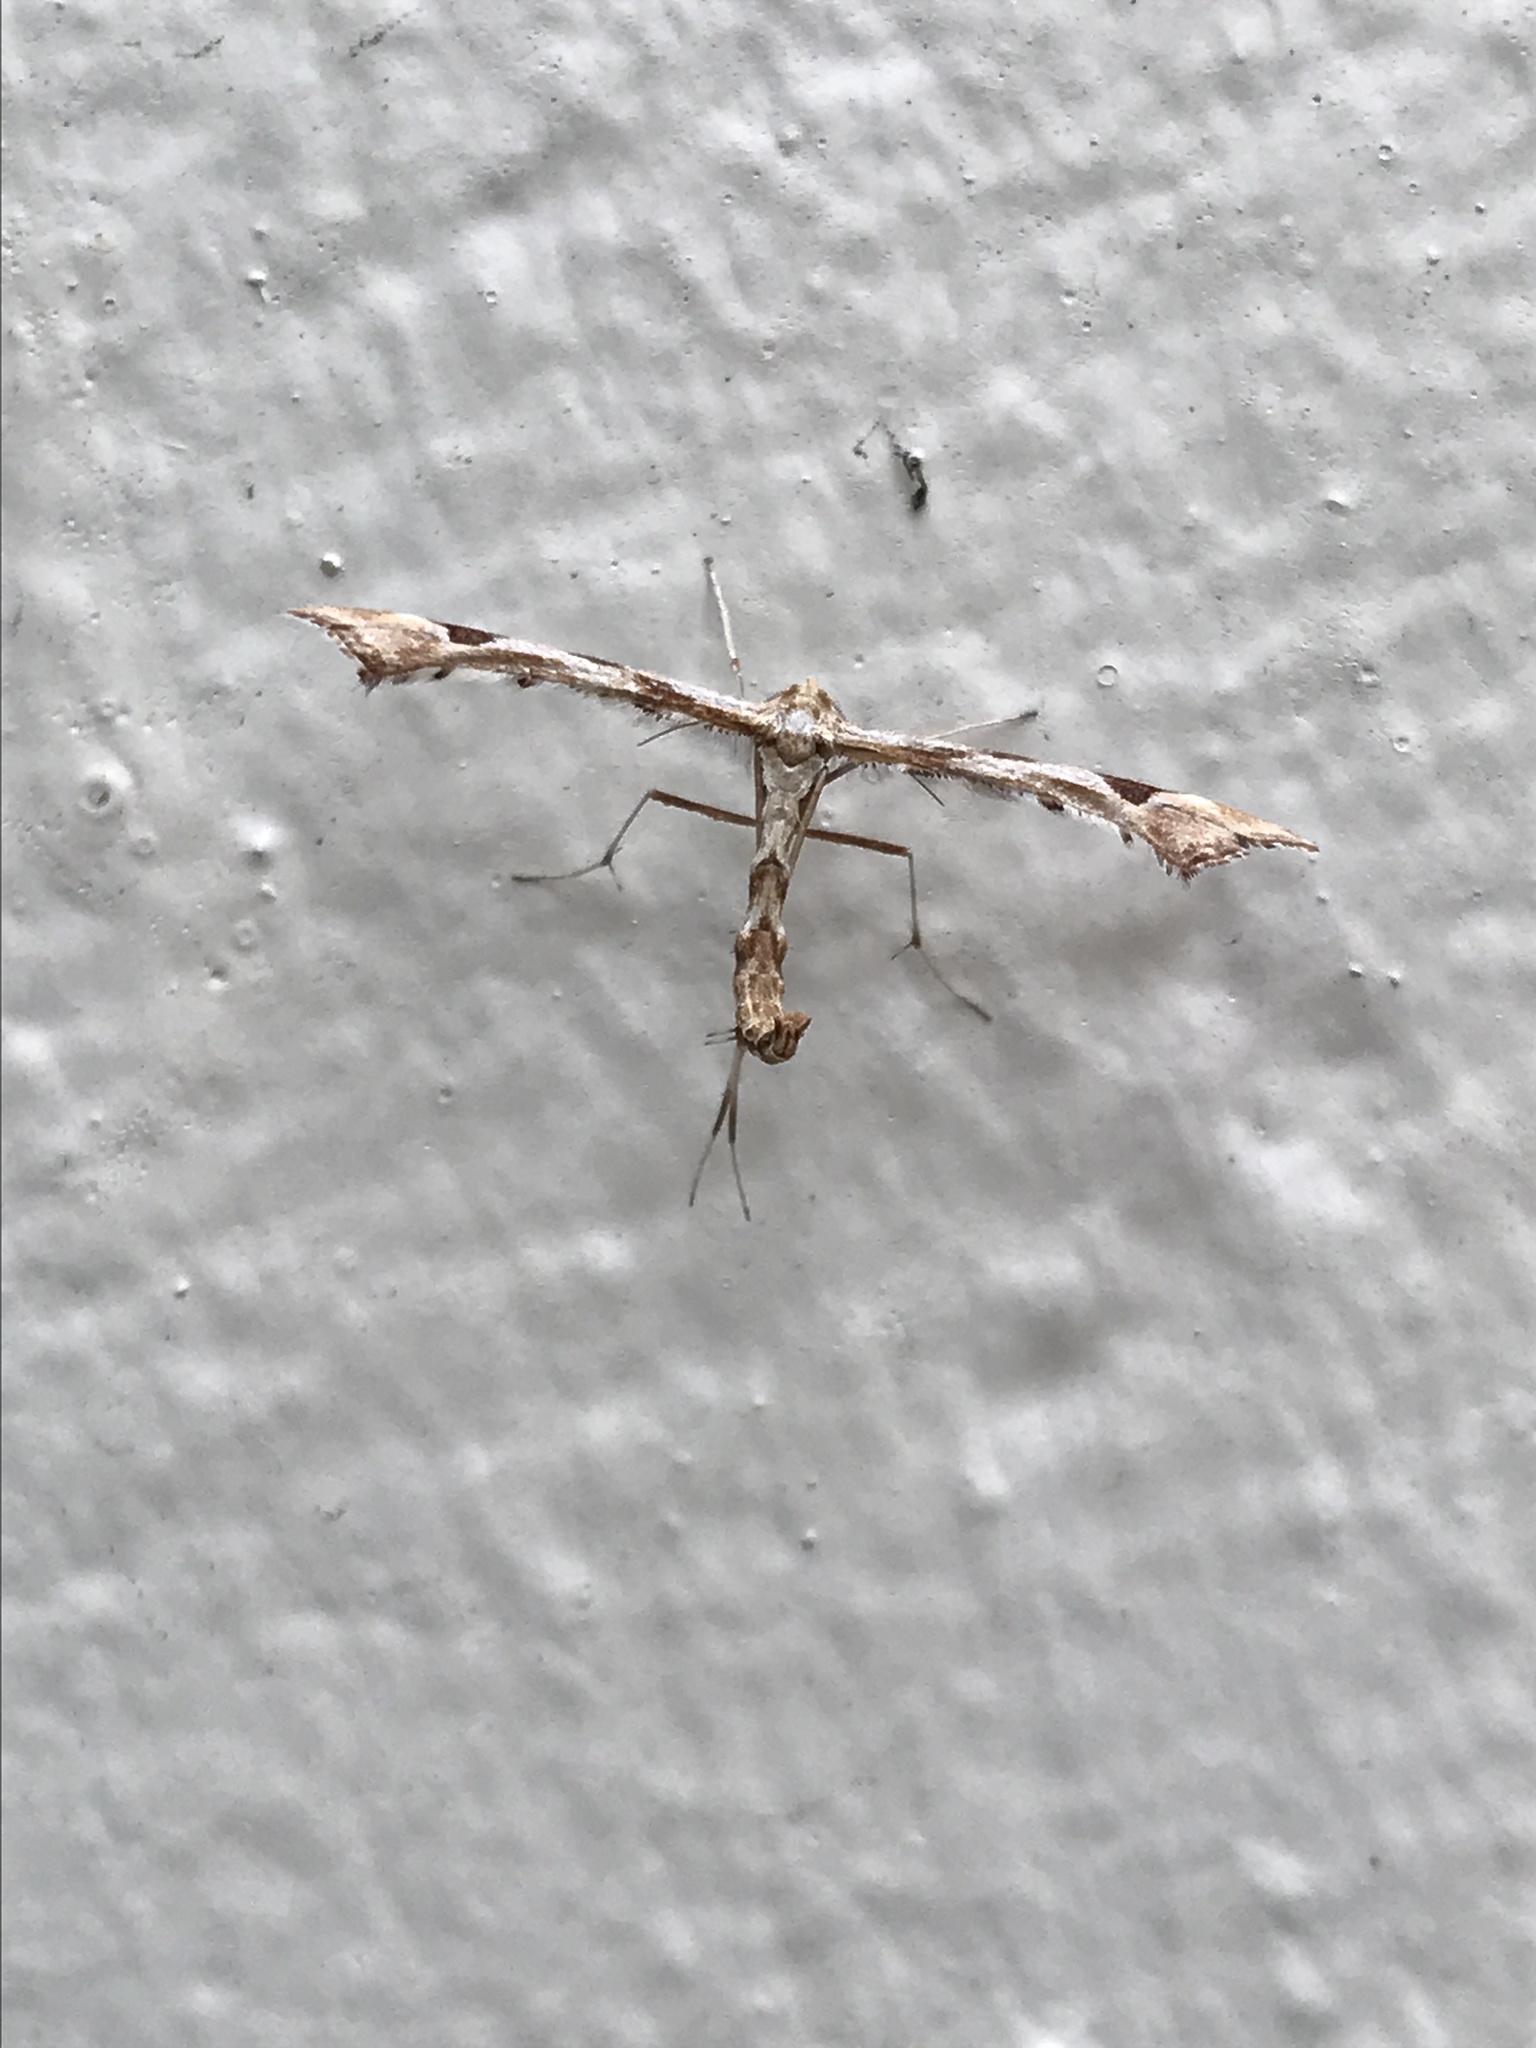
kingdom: Animalia
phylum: Arthropoda
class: Insecta
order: Lepidoptera
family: Pterophoridae
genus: Platyptilia
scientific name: Platyptilia carduidactylus
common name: Artichoke plume moth
